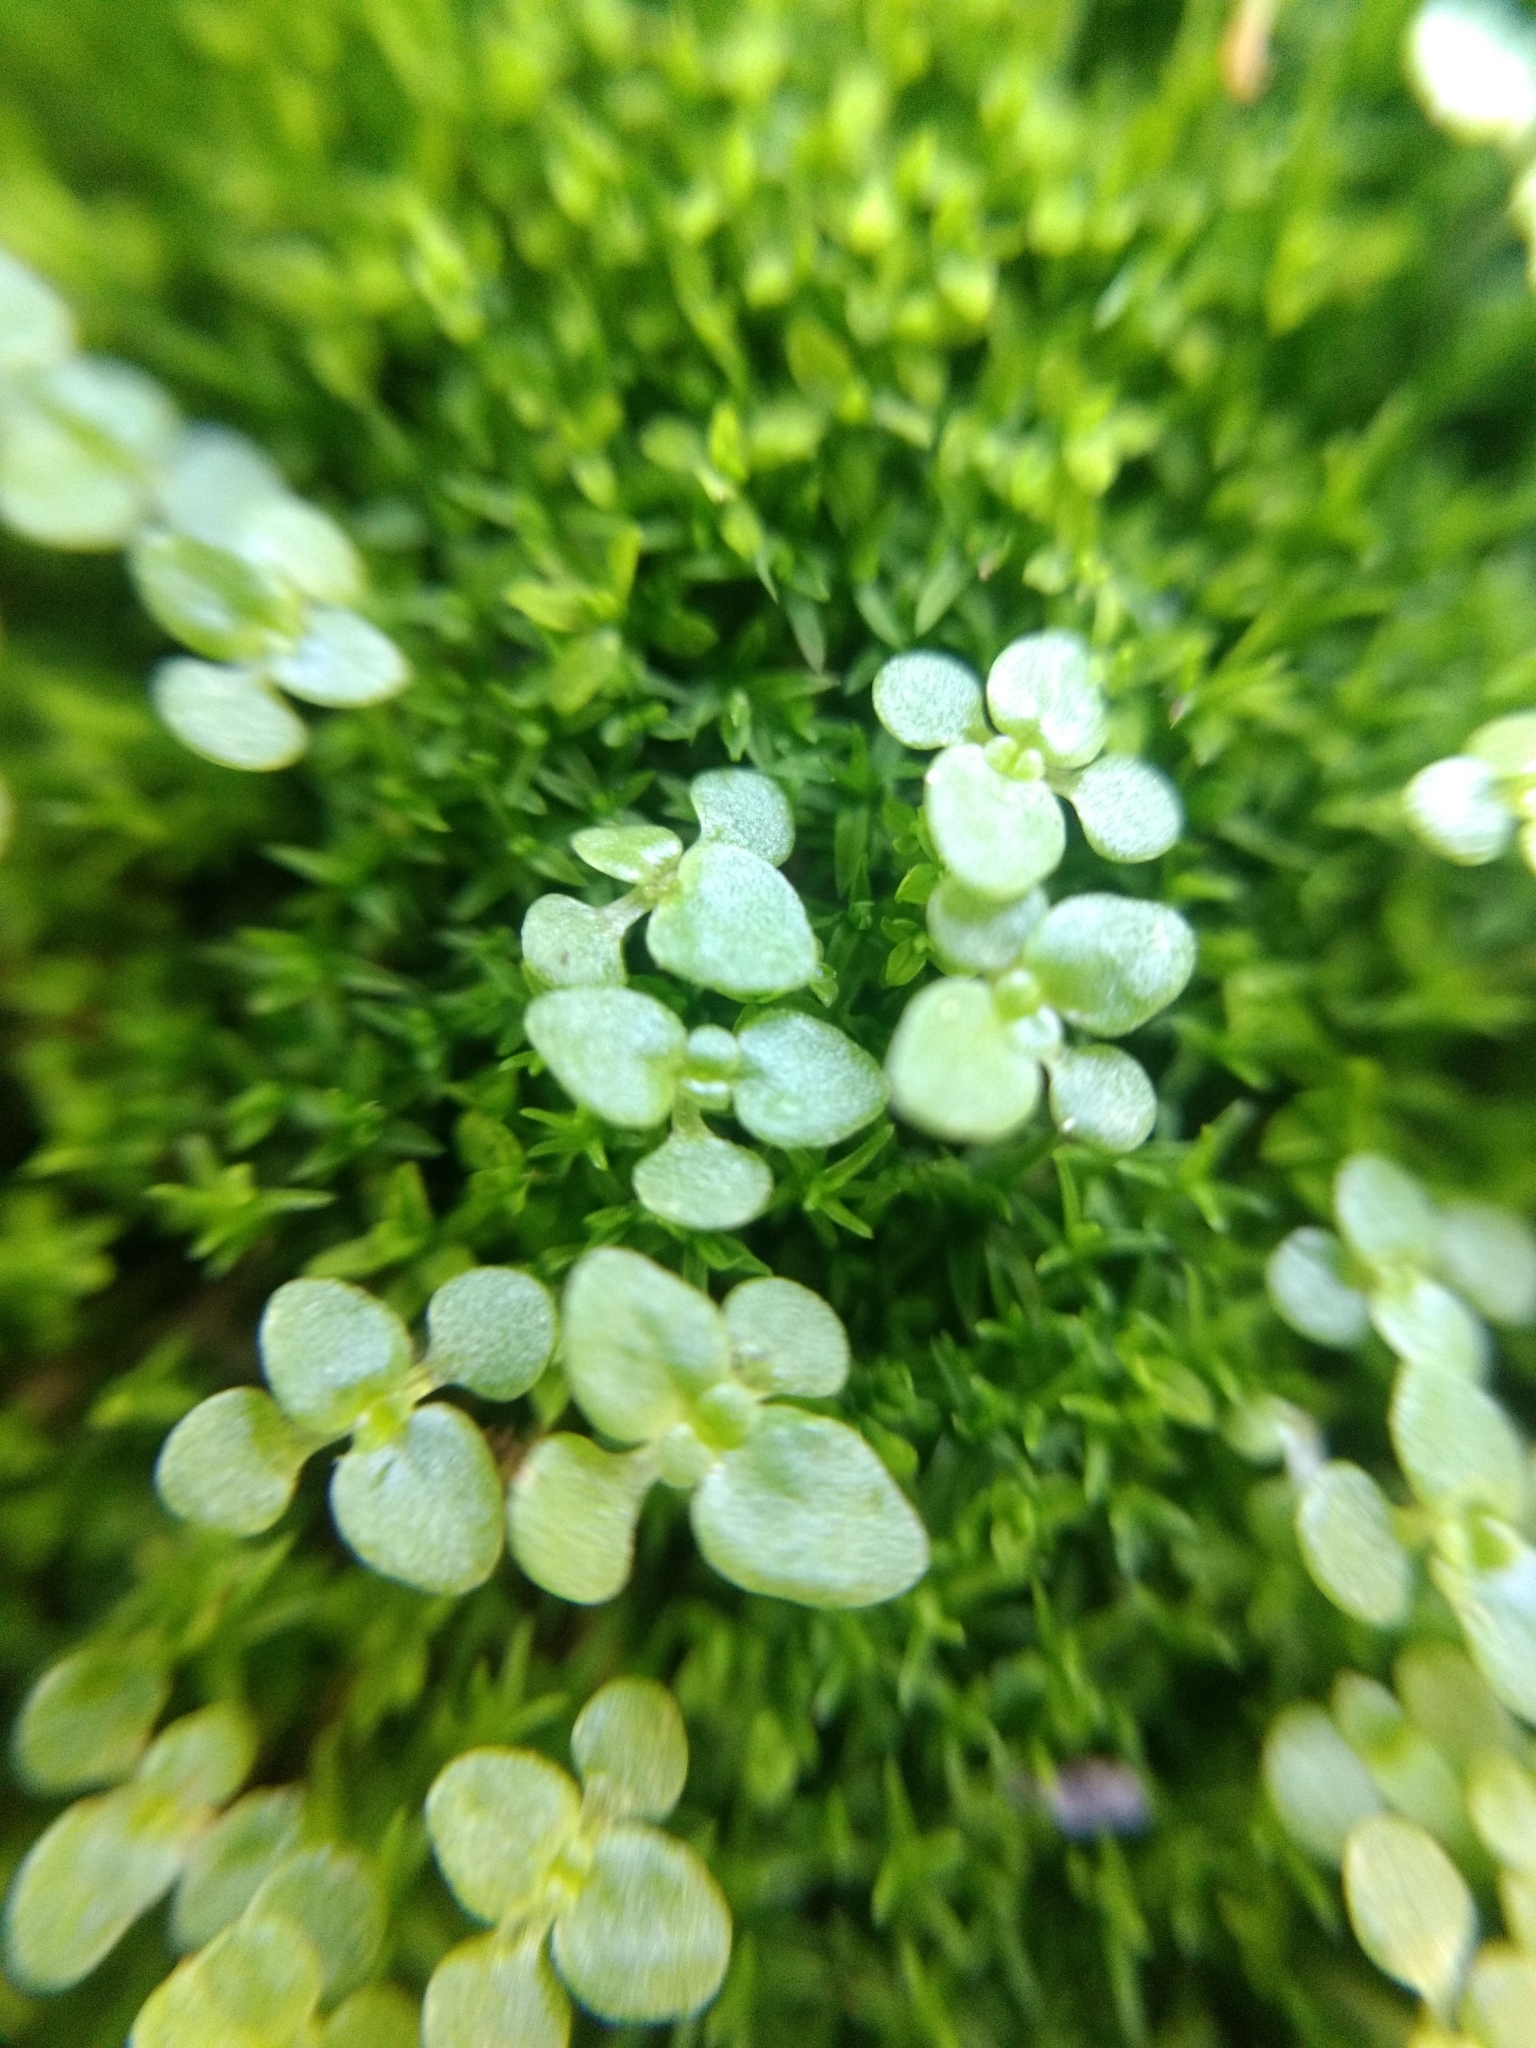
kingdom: Plantae
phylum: Tracheophyta
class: Magnoliopsida
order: Saxifragales
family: Crassulaceae
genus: Sedum
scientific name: Sedum jaliscanum
